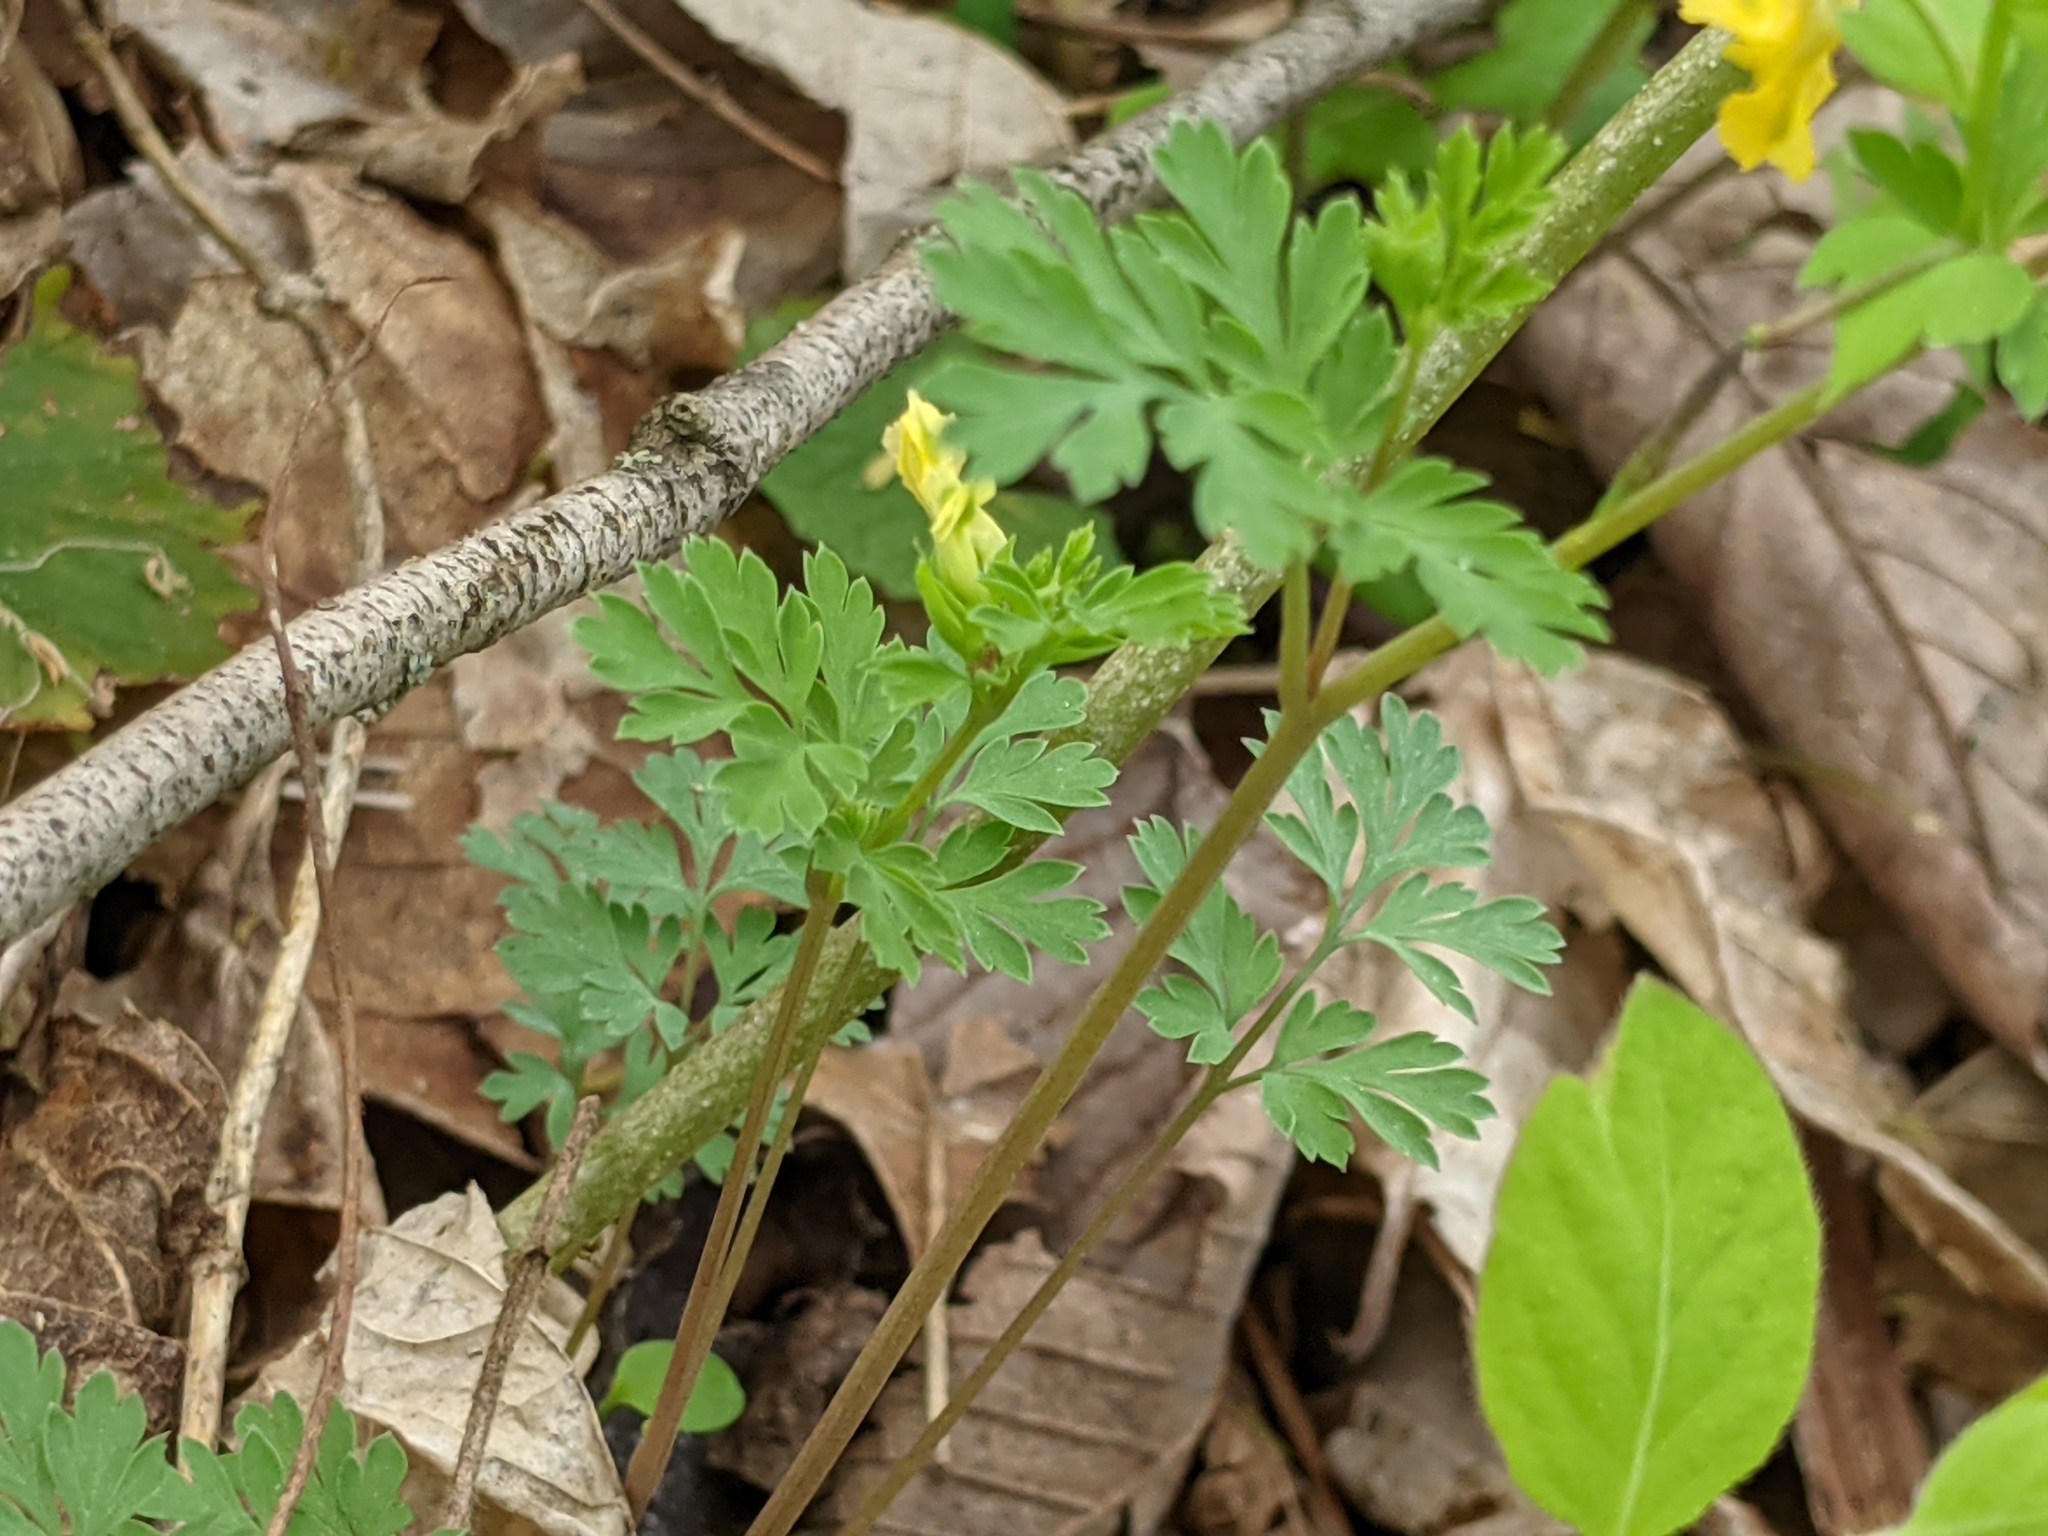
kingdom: Plantae
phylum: Tracheophyta
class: Magnoliopsida
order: Ranunculales
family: Papaveraceae
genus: Corydalis
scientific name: Corydalis flavula
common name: Yellow corydalis
